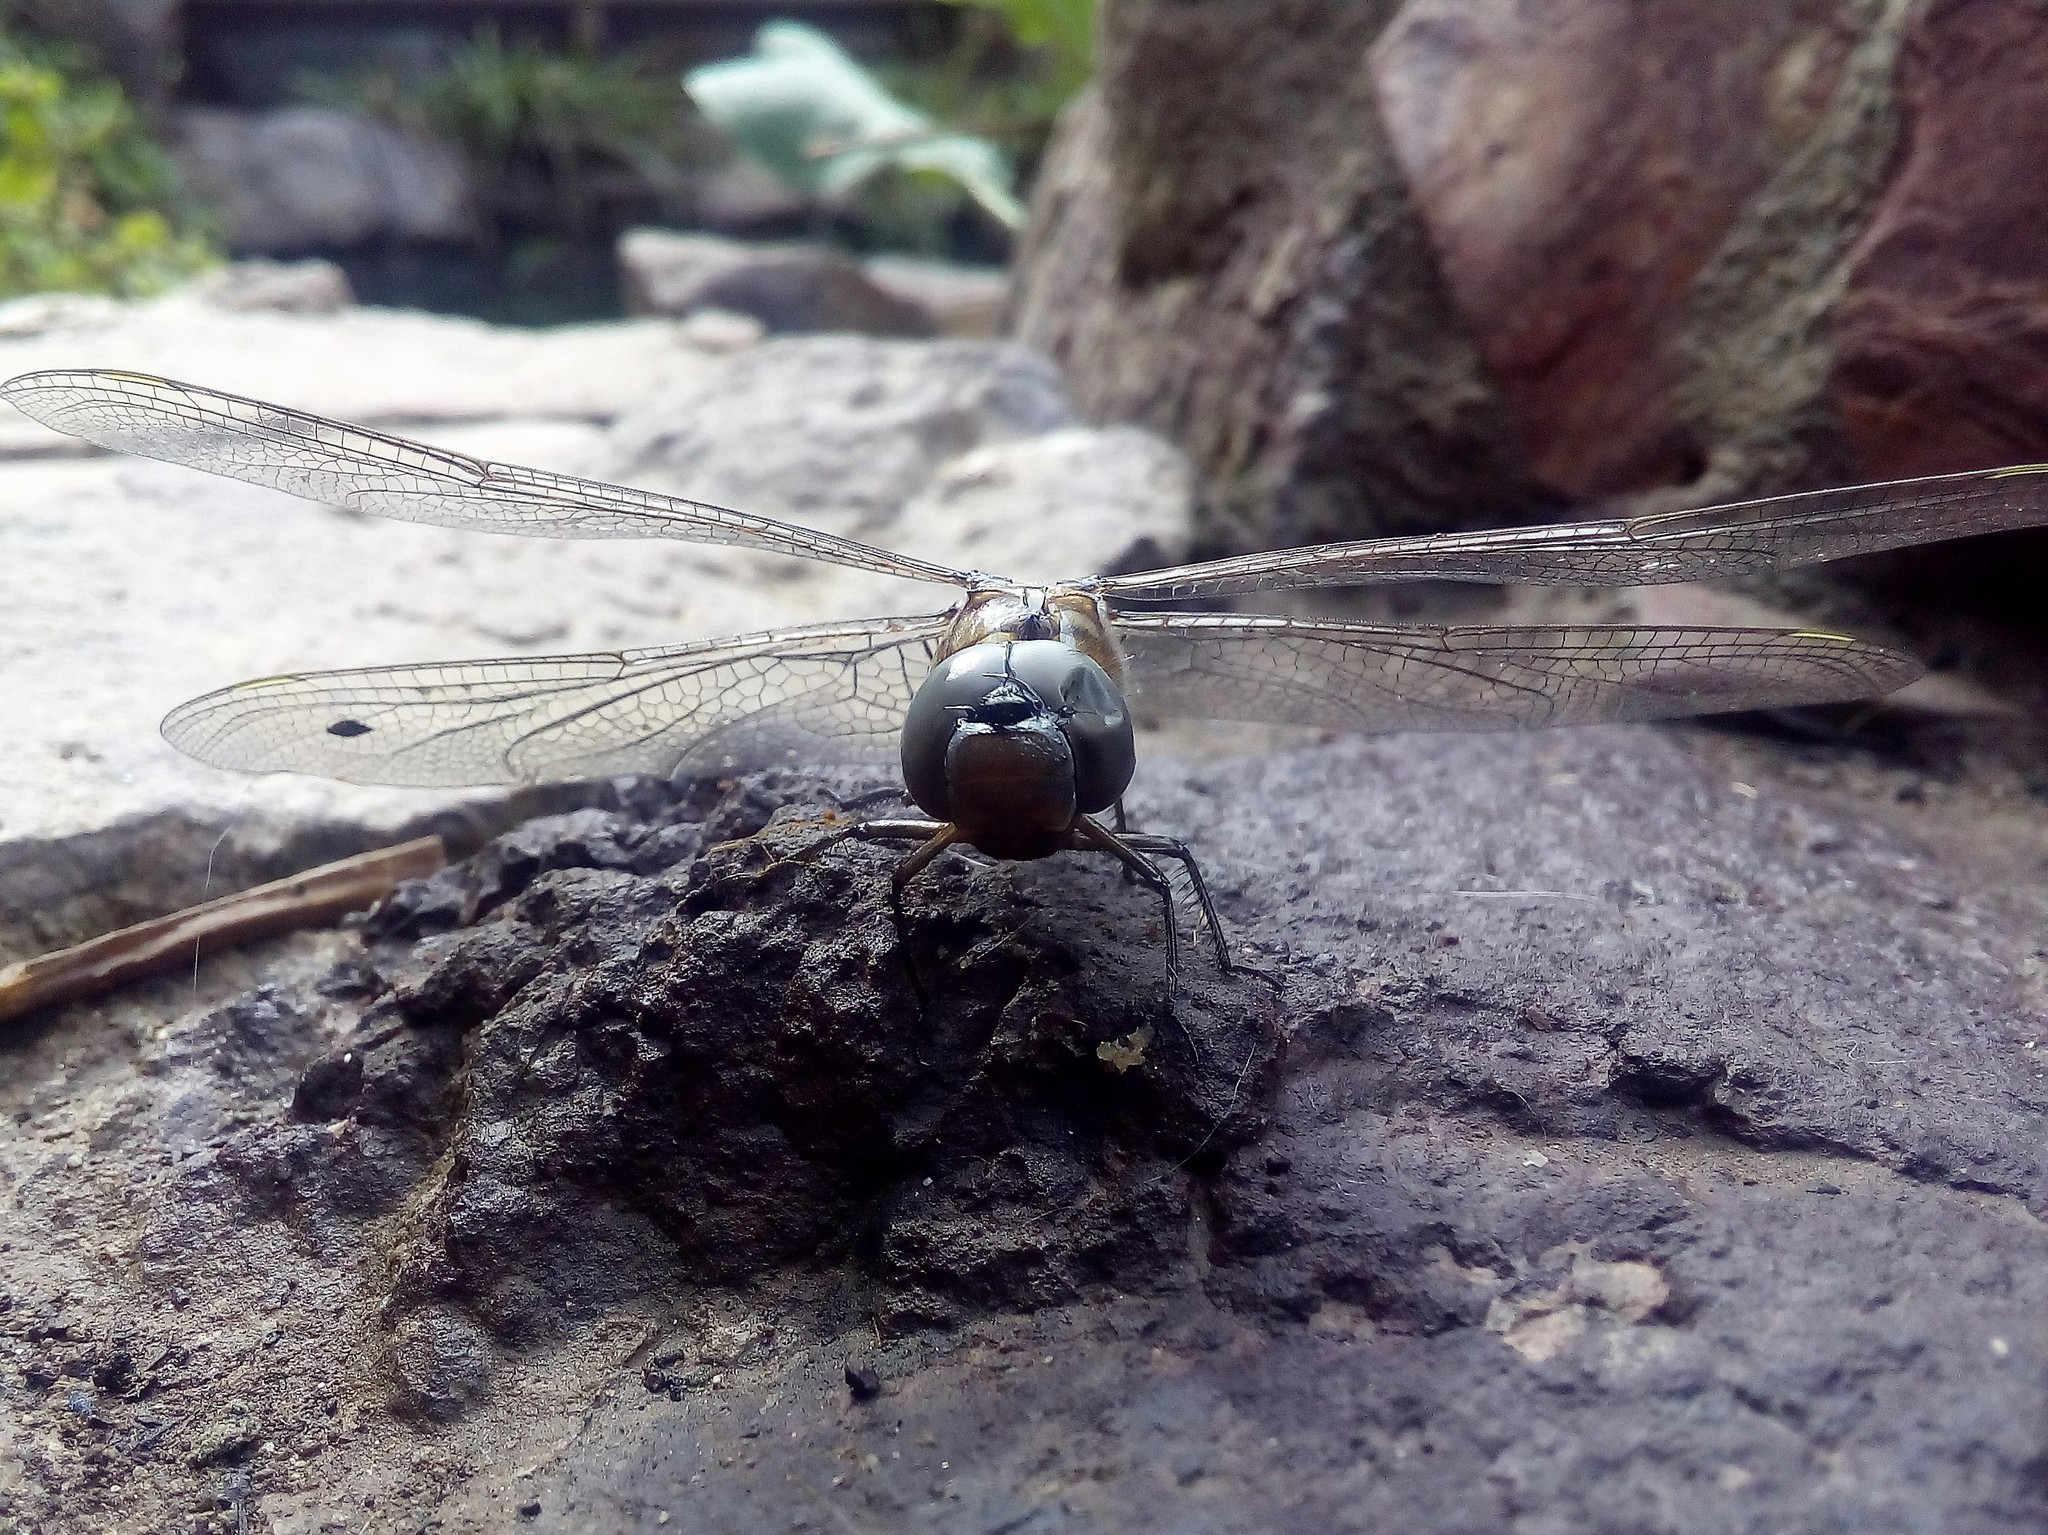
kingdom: Animalia
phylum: Arthropoda
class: Insecta
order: Odonata
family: Aeshnidae
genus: Rhionaeschna
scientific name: Rhionaeschna multicolor
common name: Blue-eyed darner
